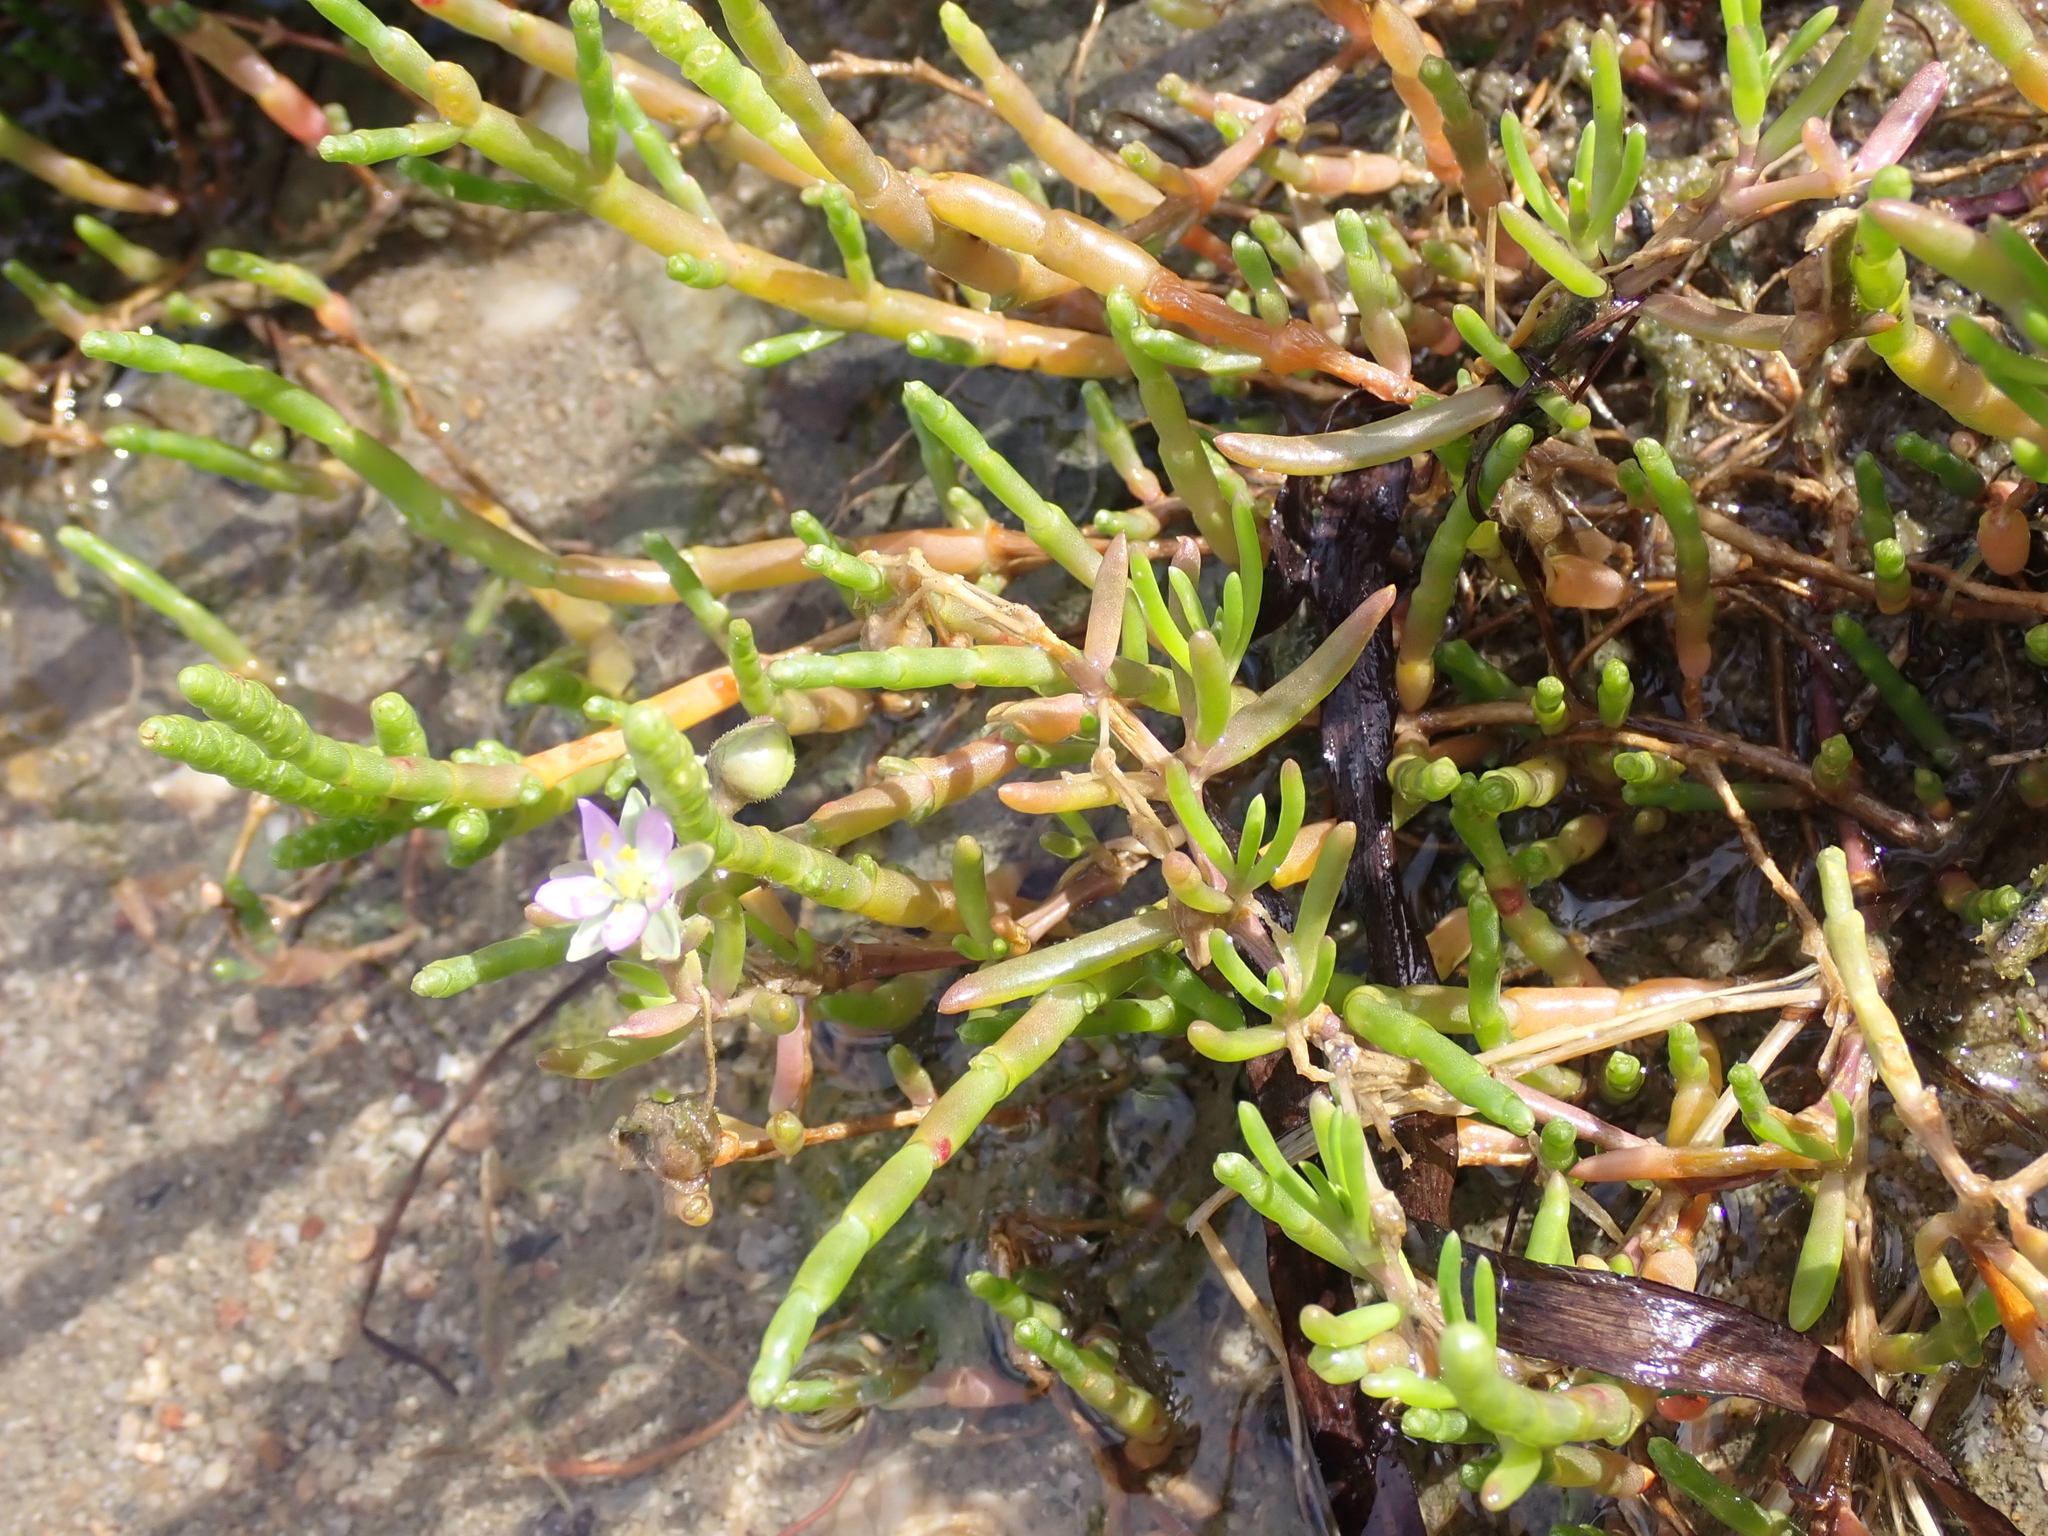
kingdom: Plantae
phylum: Tracheophyta
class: Magnoliopsida
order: Caryophyllales
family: Caryophyllaceae
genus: Spergularia
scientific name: Spergularia marina
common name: Lesser sea-spurrey
